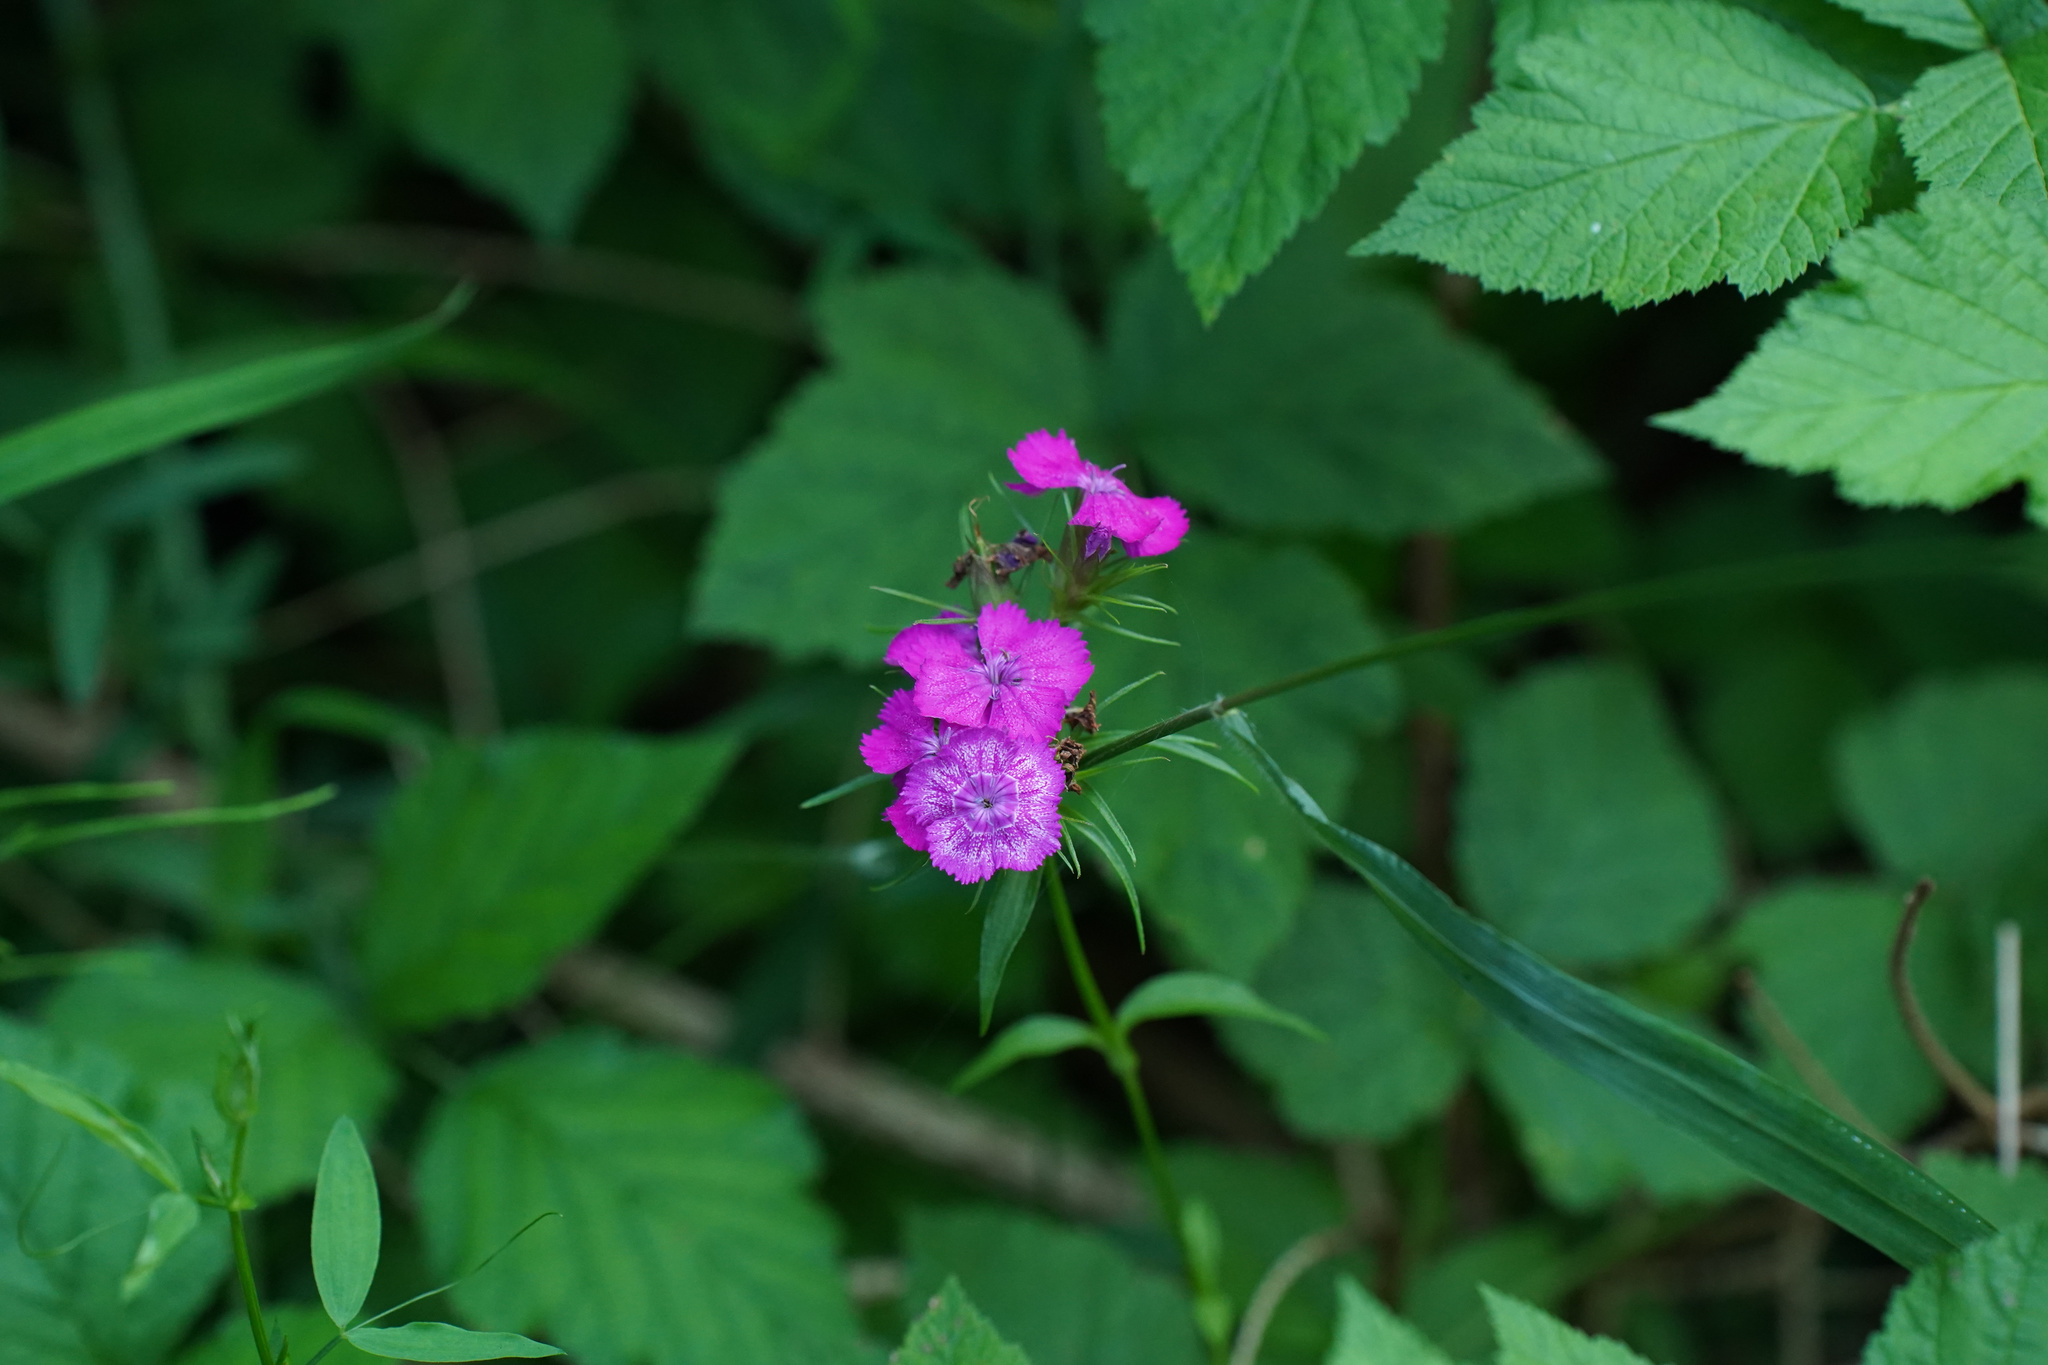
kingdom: Plantae
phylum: Tracheophyta
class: Magnoliopsida
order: Caryophyllales
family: Caryophyllaceae
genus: Dianthus
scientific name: Dianthus barbatus
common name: Sweet-william
